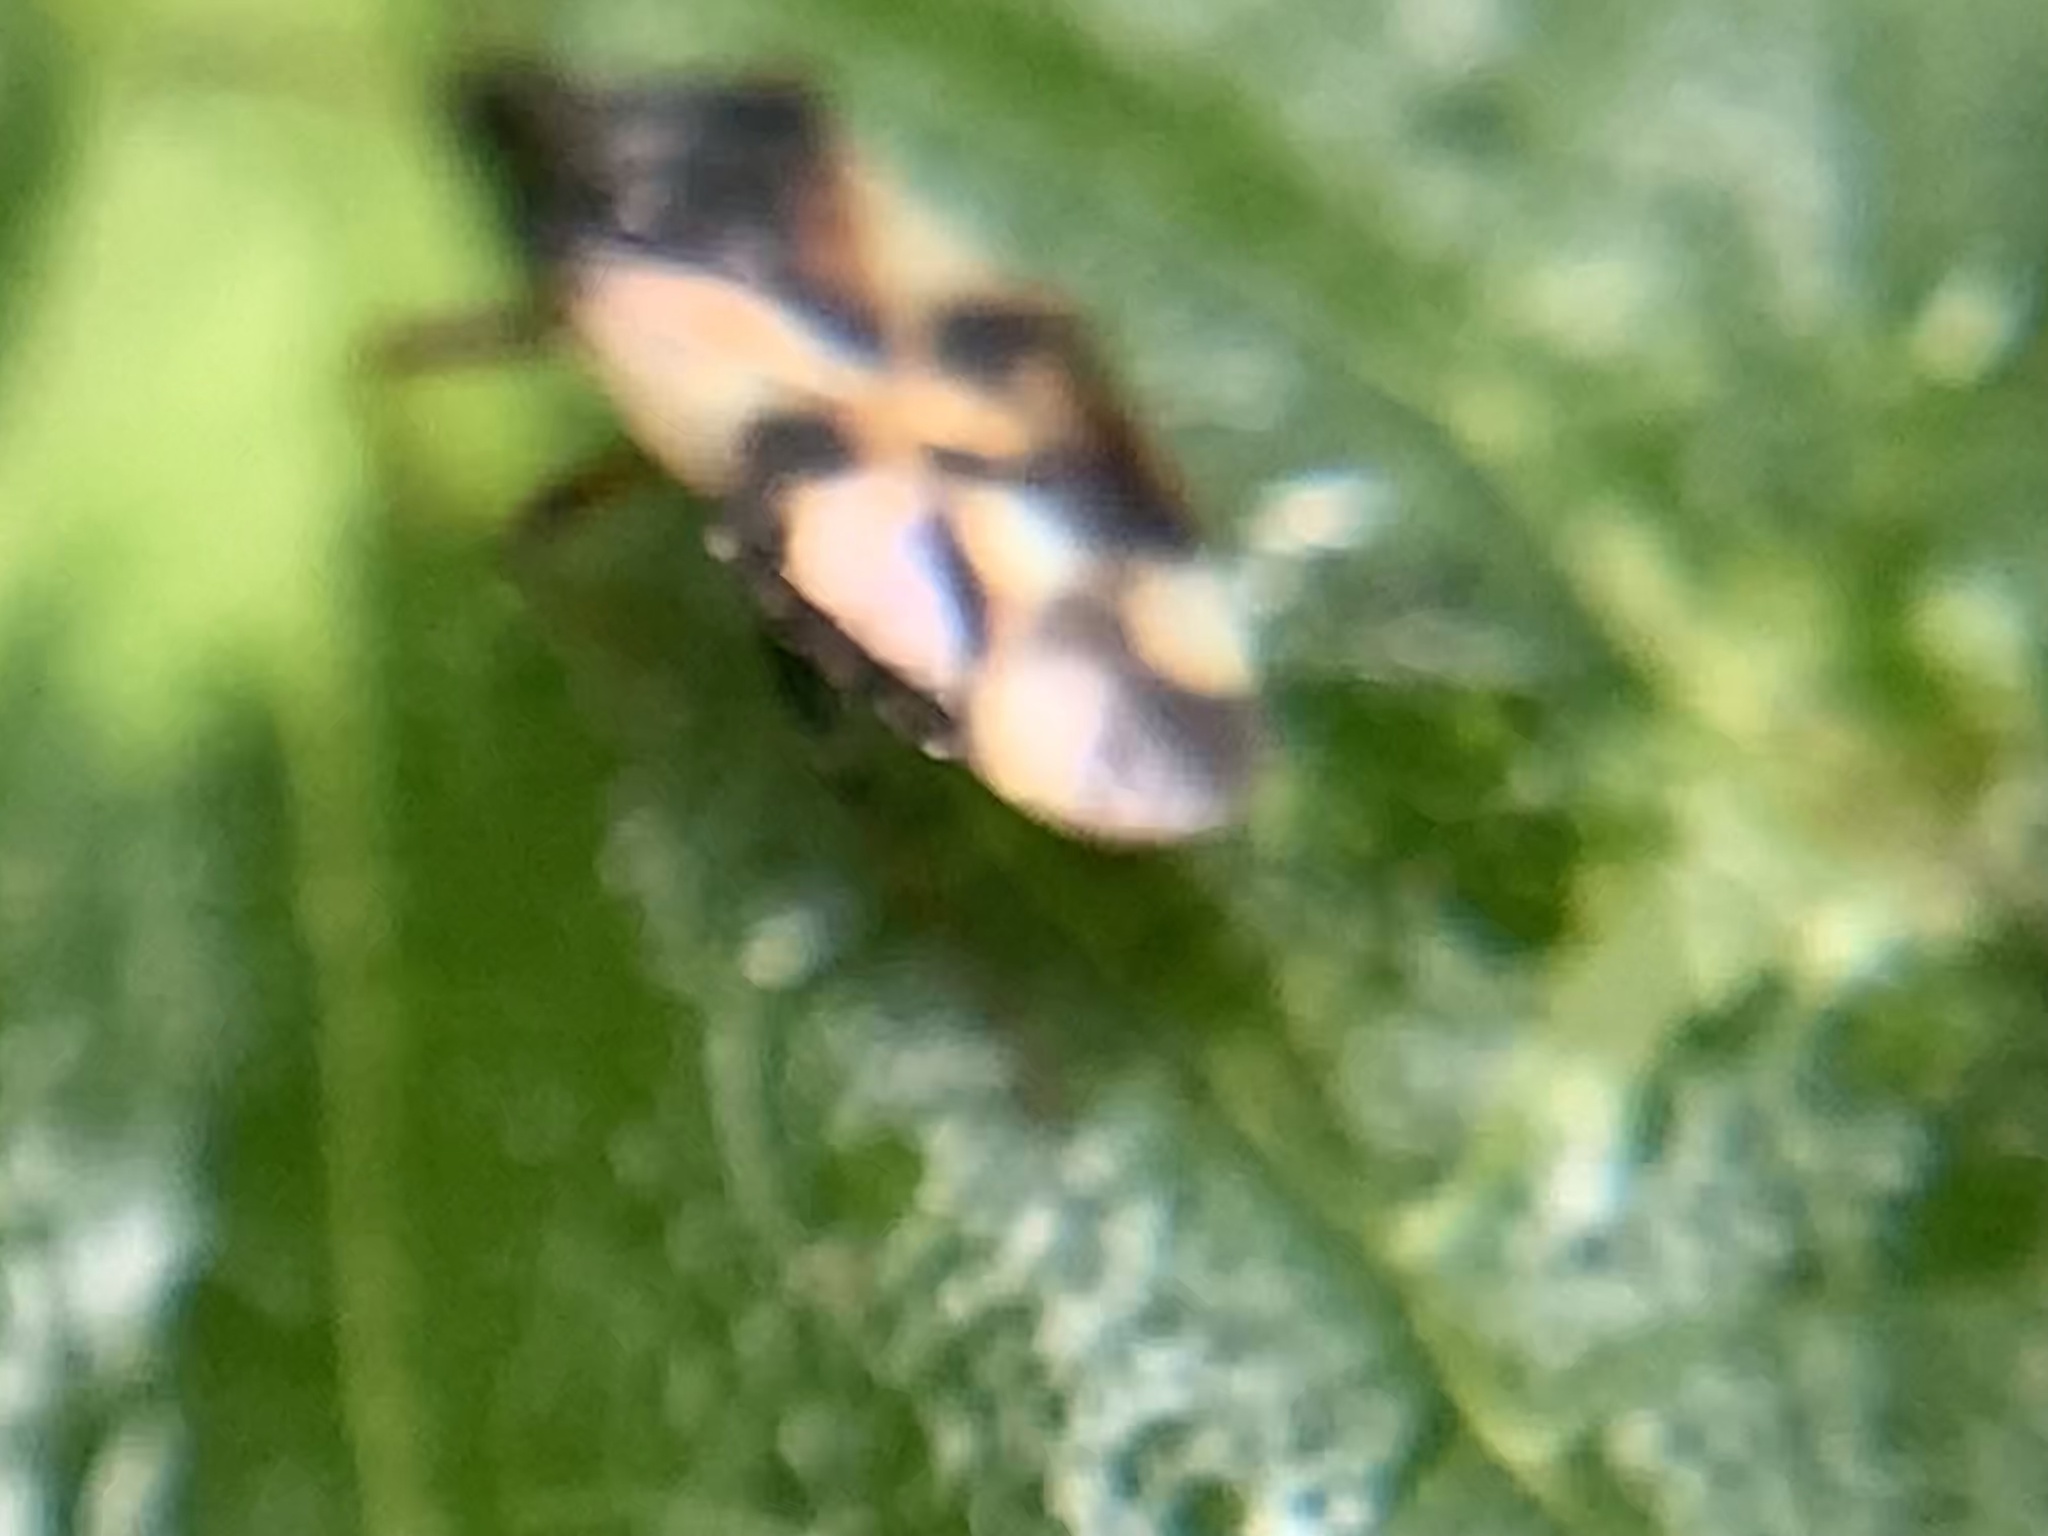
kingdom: Animalia
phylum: Arthropoda
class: Insecta
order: Hemiptera
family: Anthocoridae
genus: Anthocoris
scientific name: Anthocoris nemorum
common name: Minute pirate bug
